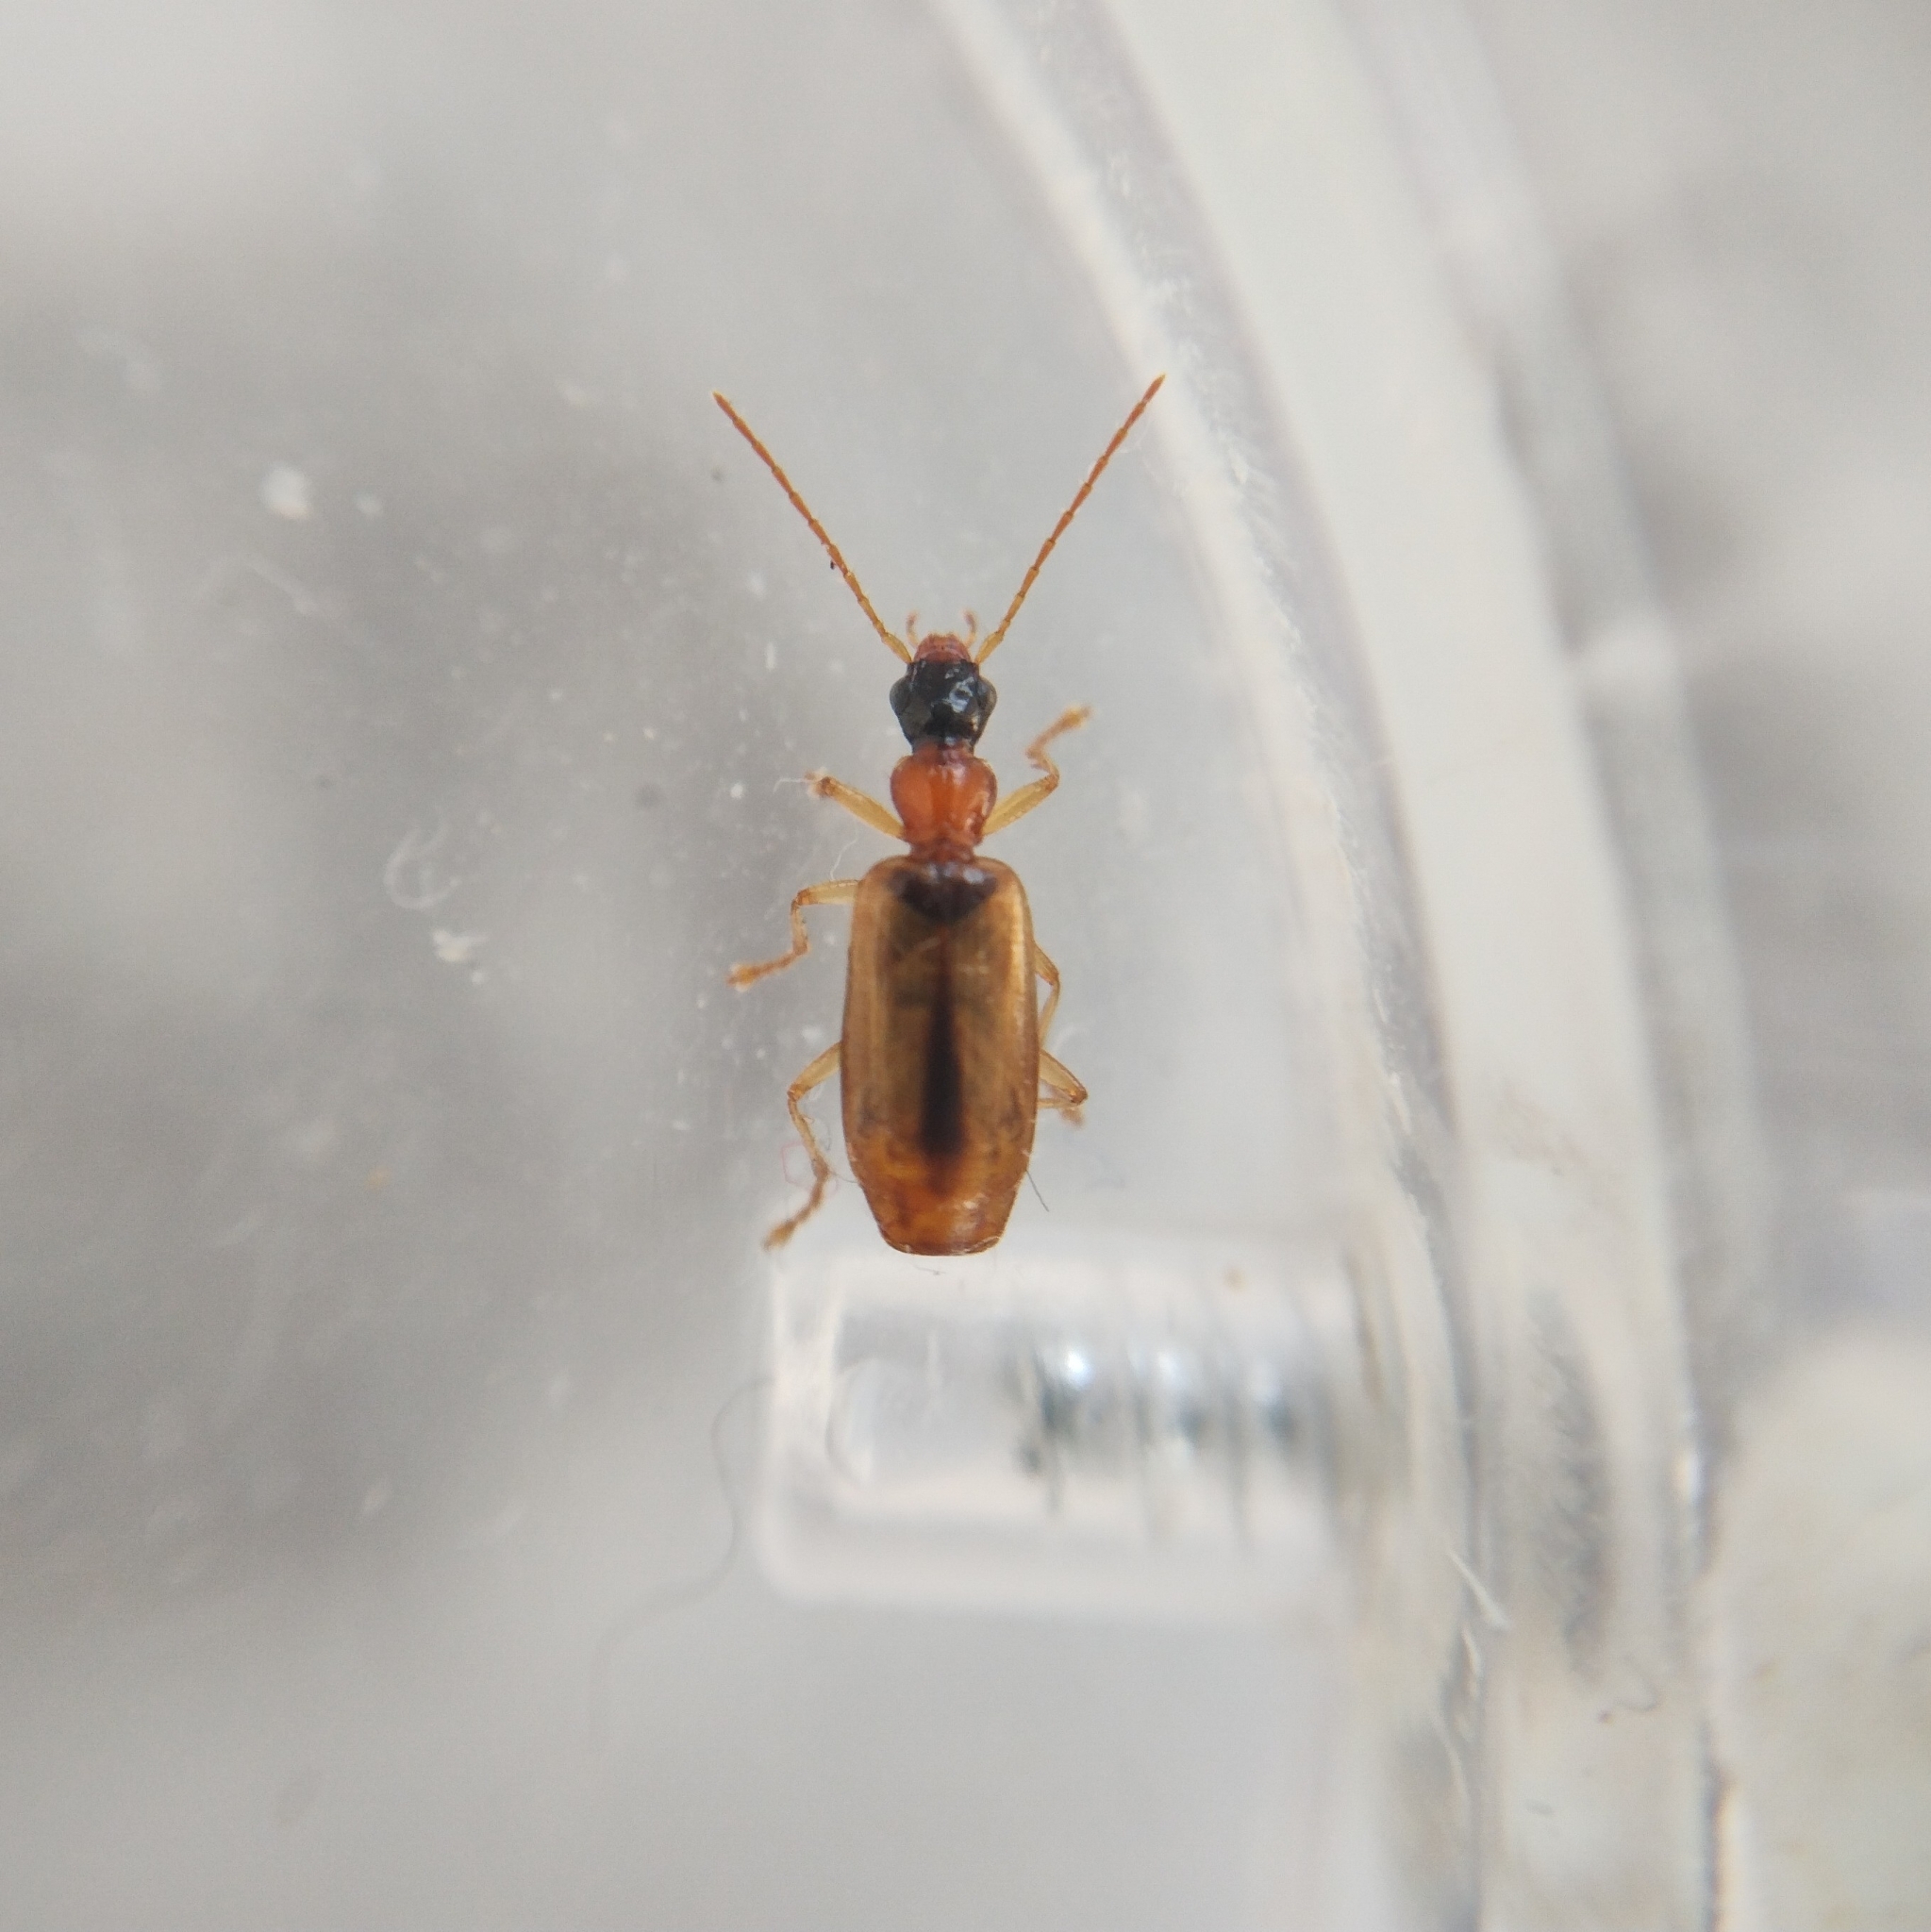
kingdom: Animalia
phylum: Arthropoda
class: Insecta
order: Coleoptera
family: Carabidae
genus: Demetrias
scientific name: Demetrias atricapillus
